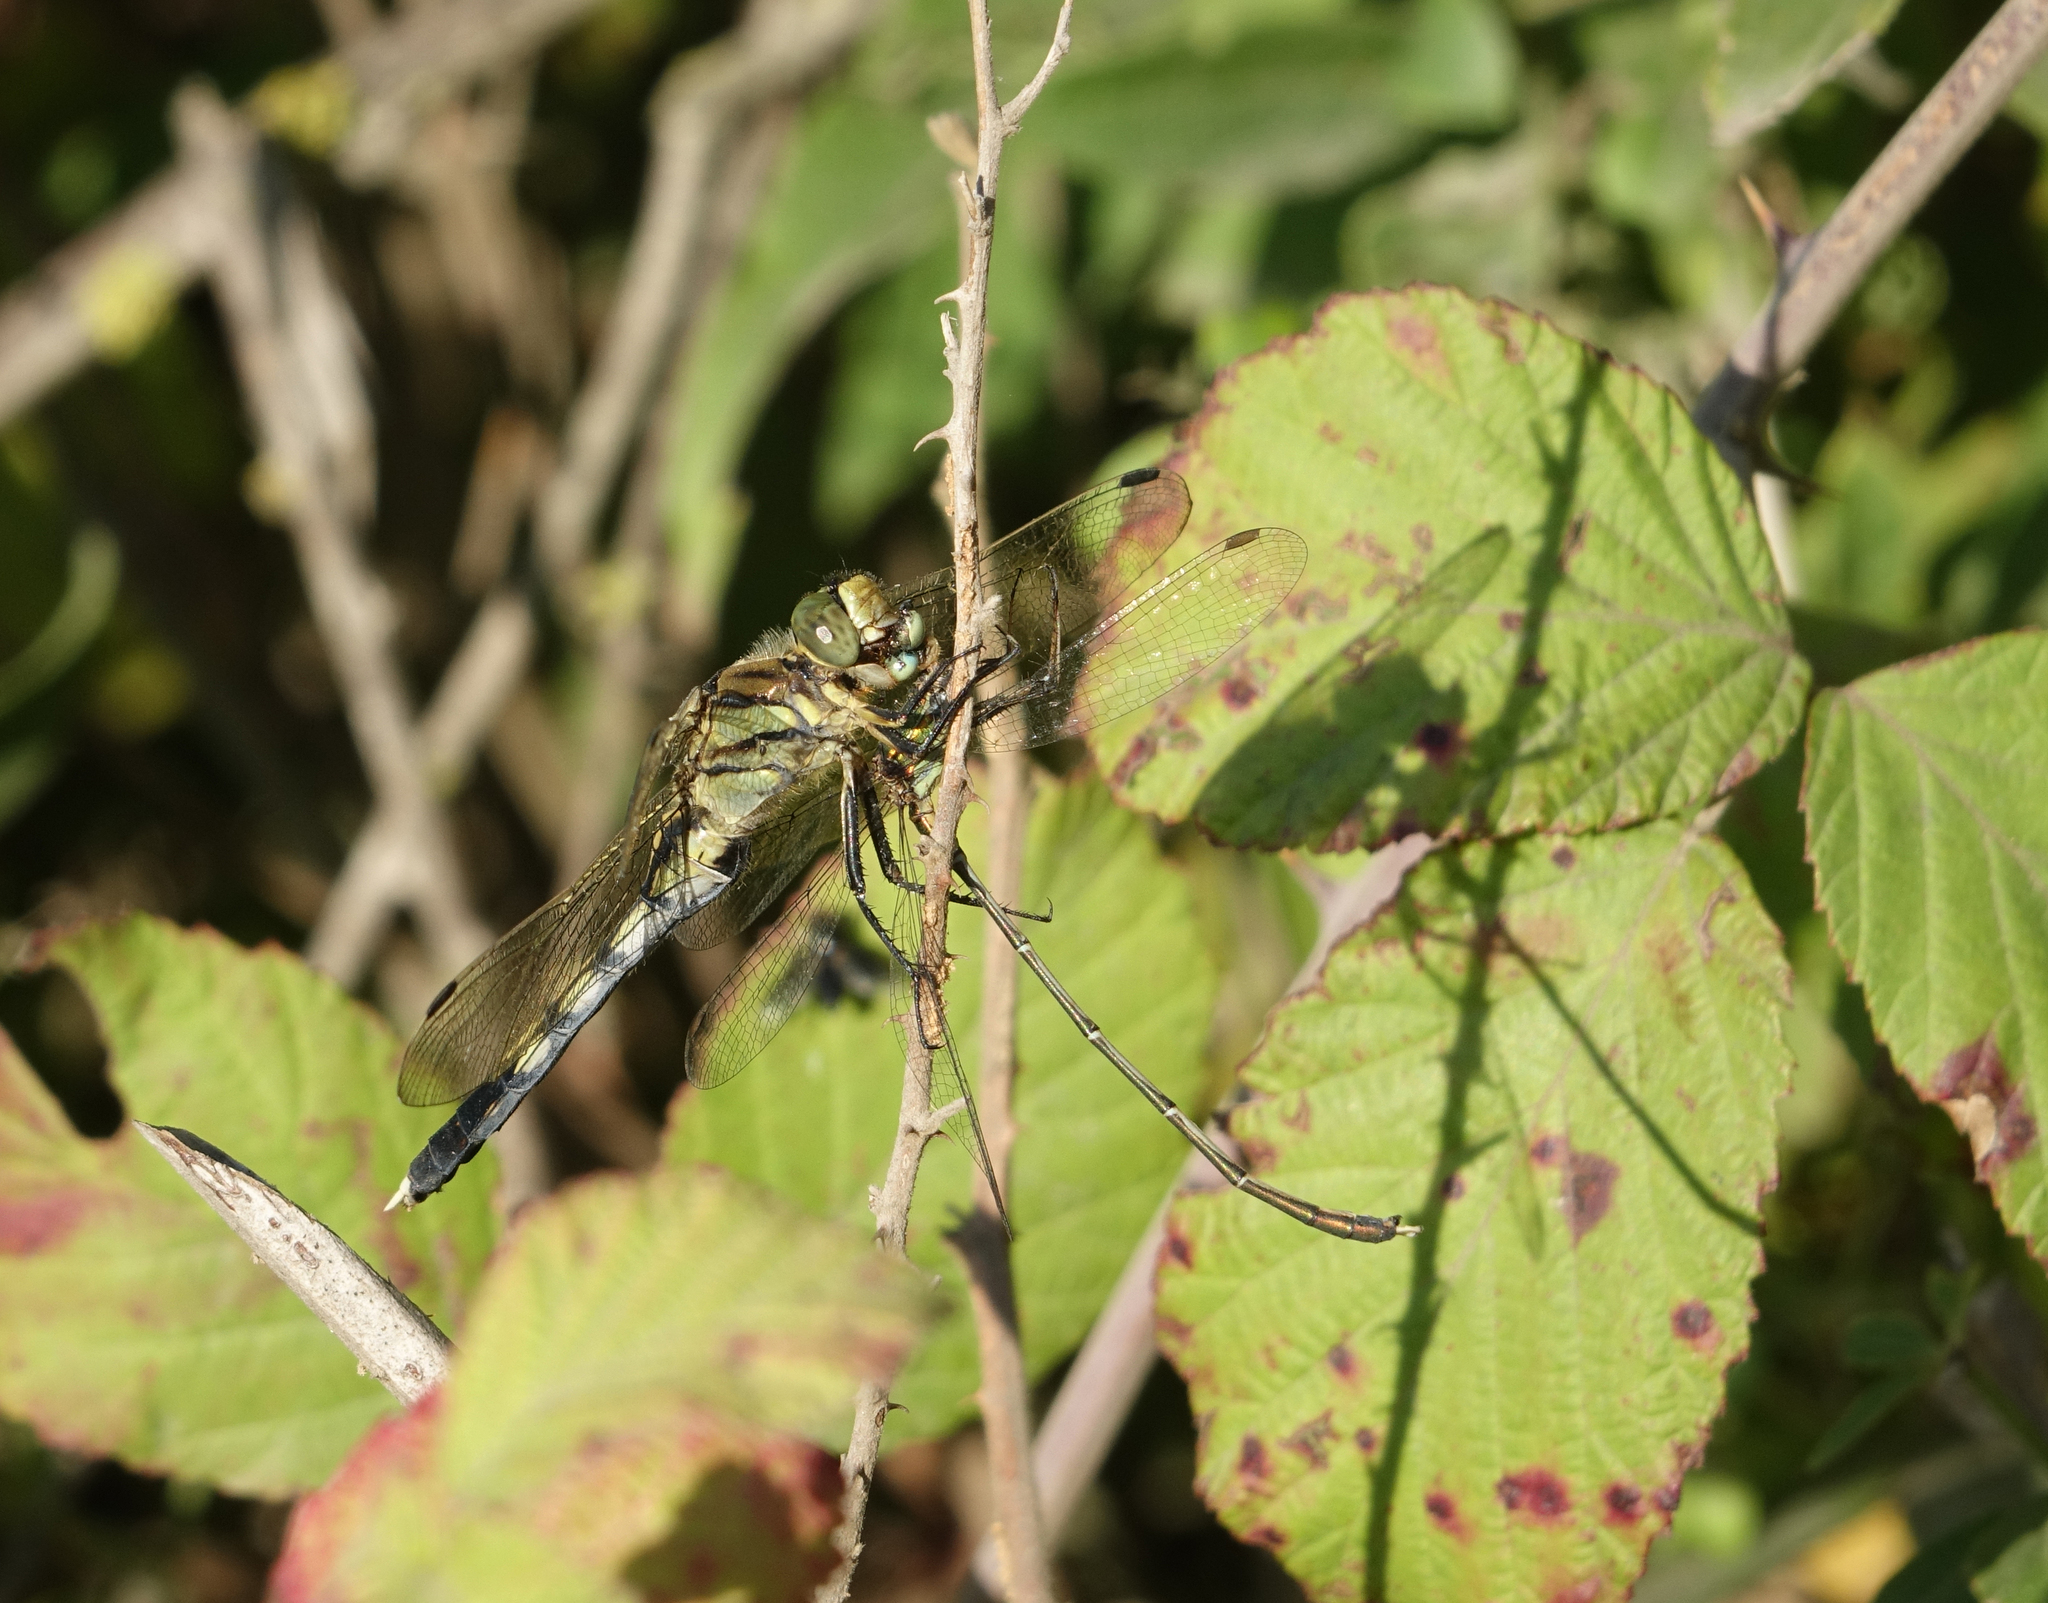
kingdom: Animalia
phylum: Arthropoda
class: Insecta
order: Odonata
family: Libellulidae
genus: Orthetrum
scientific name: Orthetrum albistylum
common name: White-tailed skimmer
